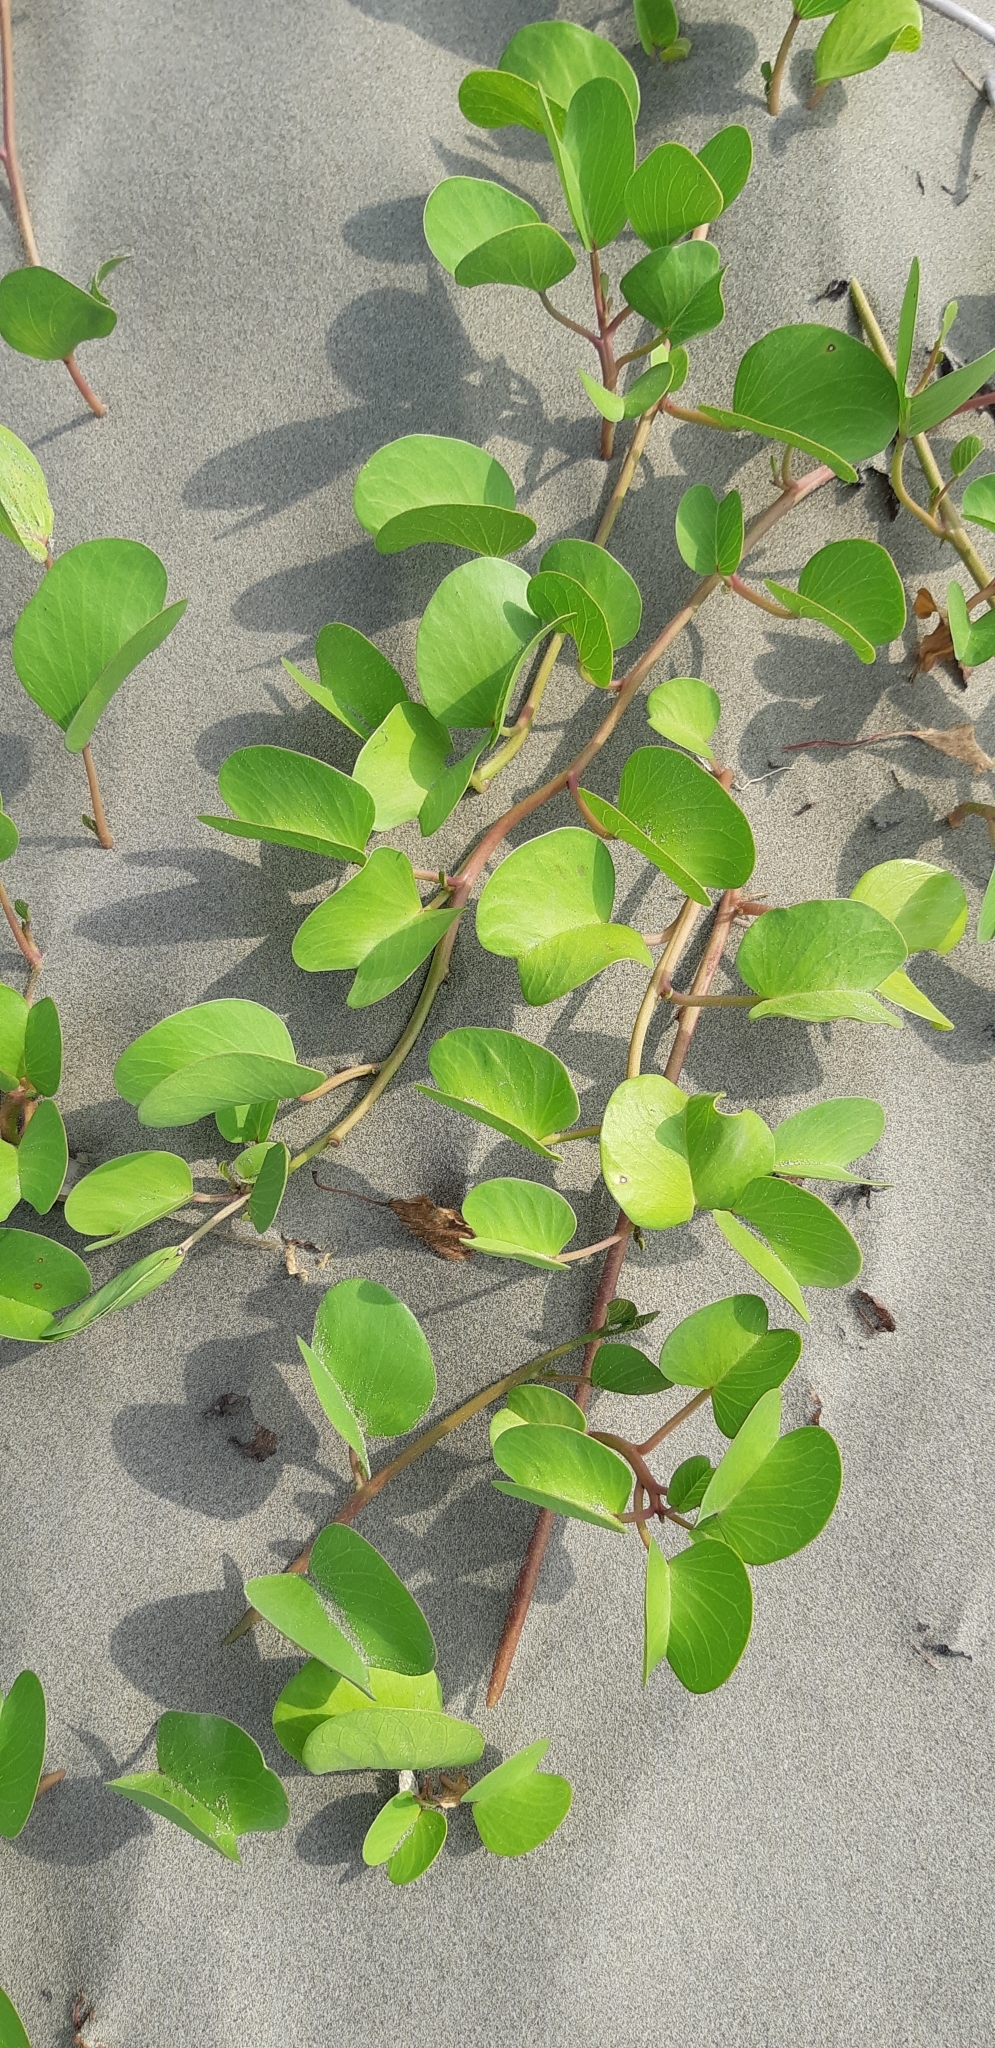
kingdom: Plantae
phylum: Tracheophyta
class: Magnoliopsida
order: Solanales
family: Convolvulaceae
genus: Ipomoea
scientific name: Ipomoea pes-caprae
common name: Beach morning glory
